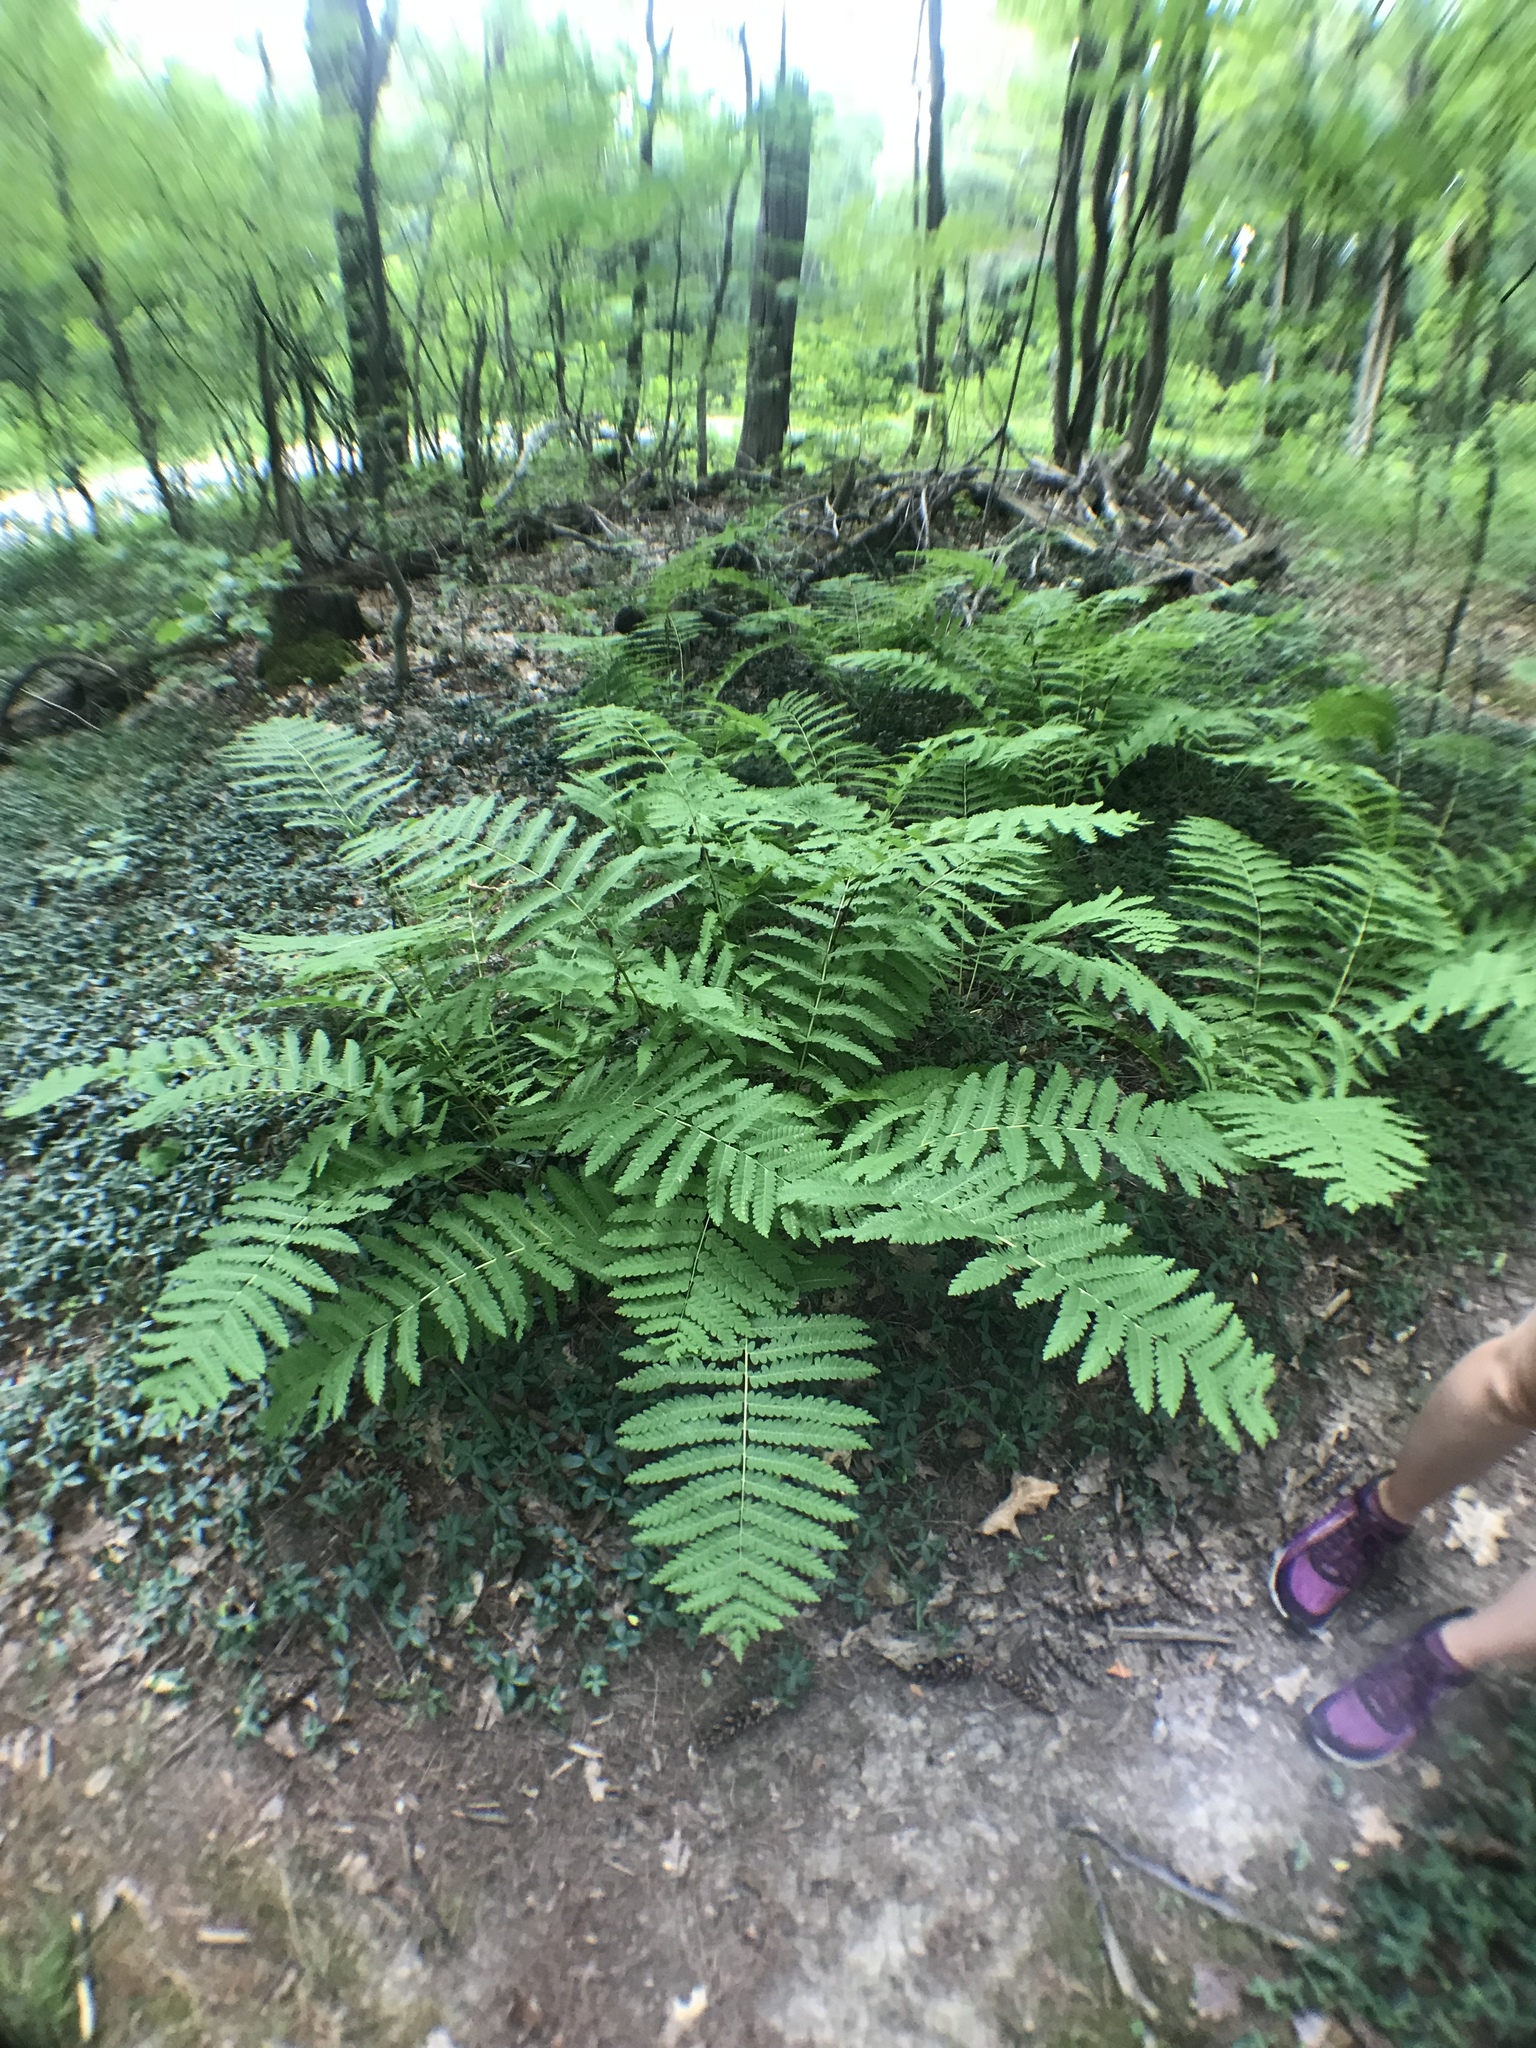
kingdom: Plantae
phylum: Tracheophyta
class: Polypodiopsida
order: Osmundales
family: Osmundaceae
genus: Claytosmunda
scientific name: Claytosmunda claytoniana
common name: Clayton's fern
